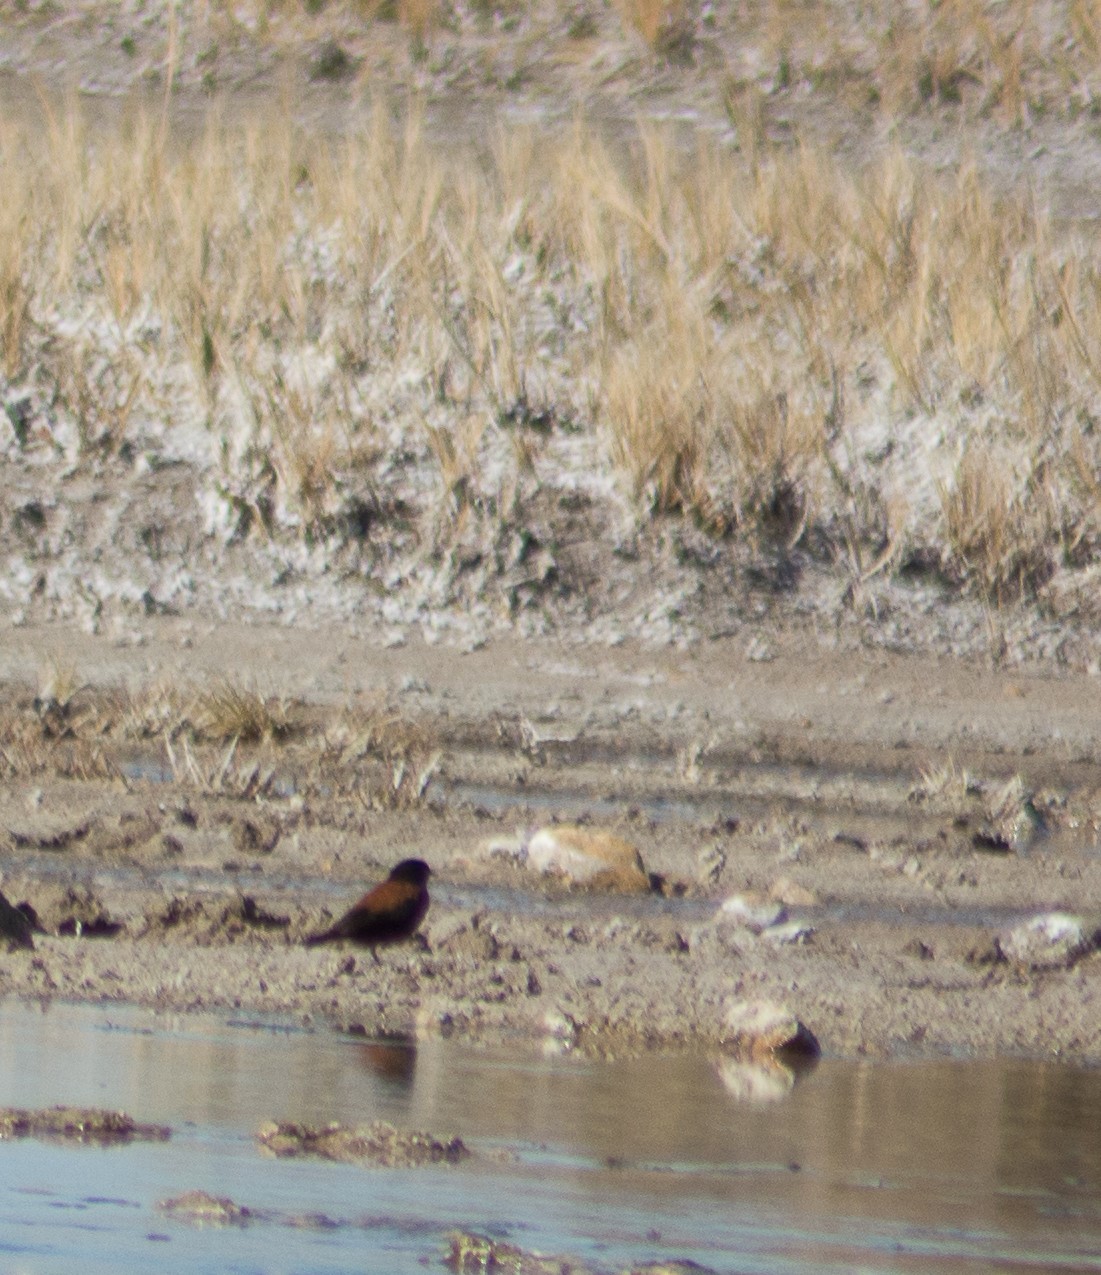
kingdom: Animalia
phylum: Chordata
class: Aves
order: Passeriformes
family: Tyrannidae
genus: Lessonia
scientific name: Lessonia rufa
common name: Austral negrito
